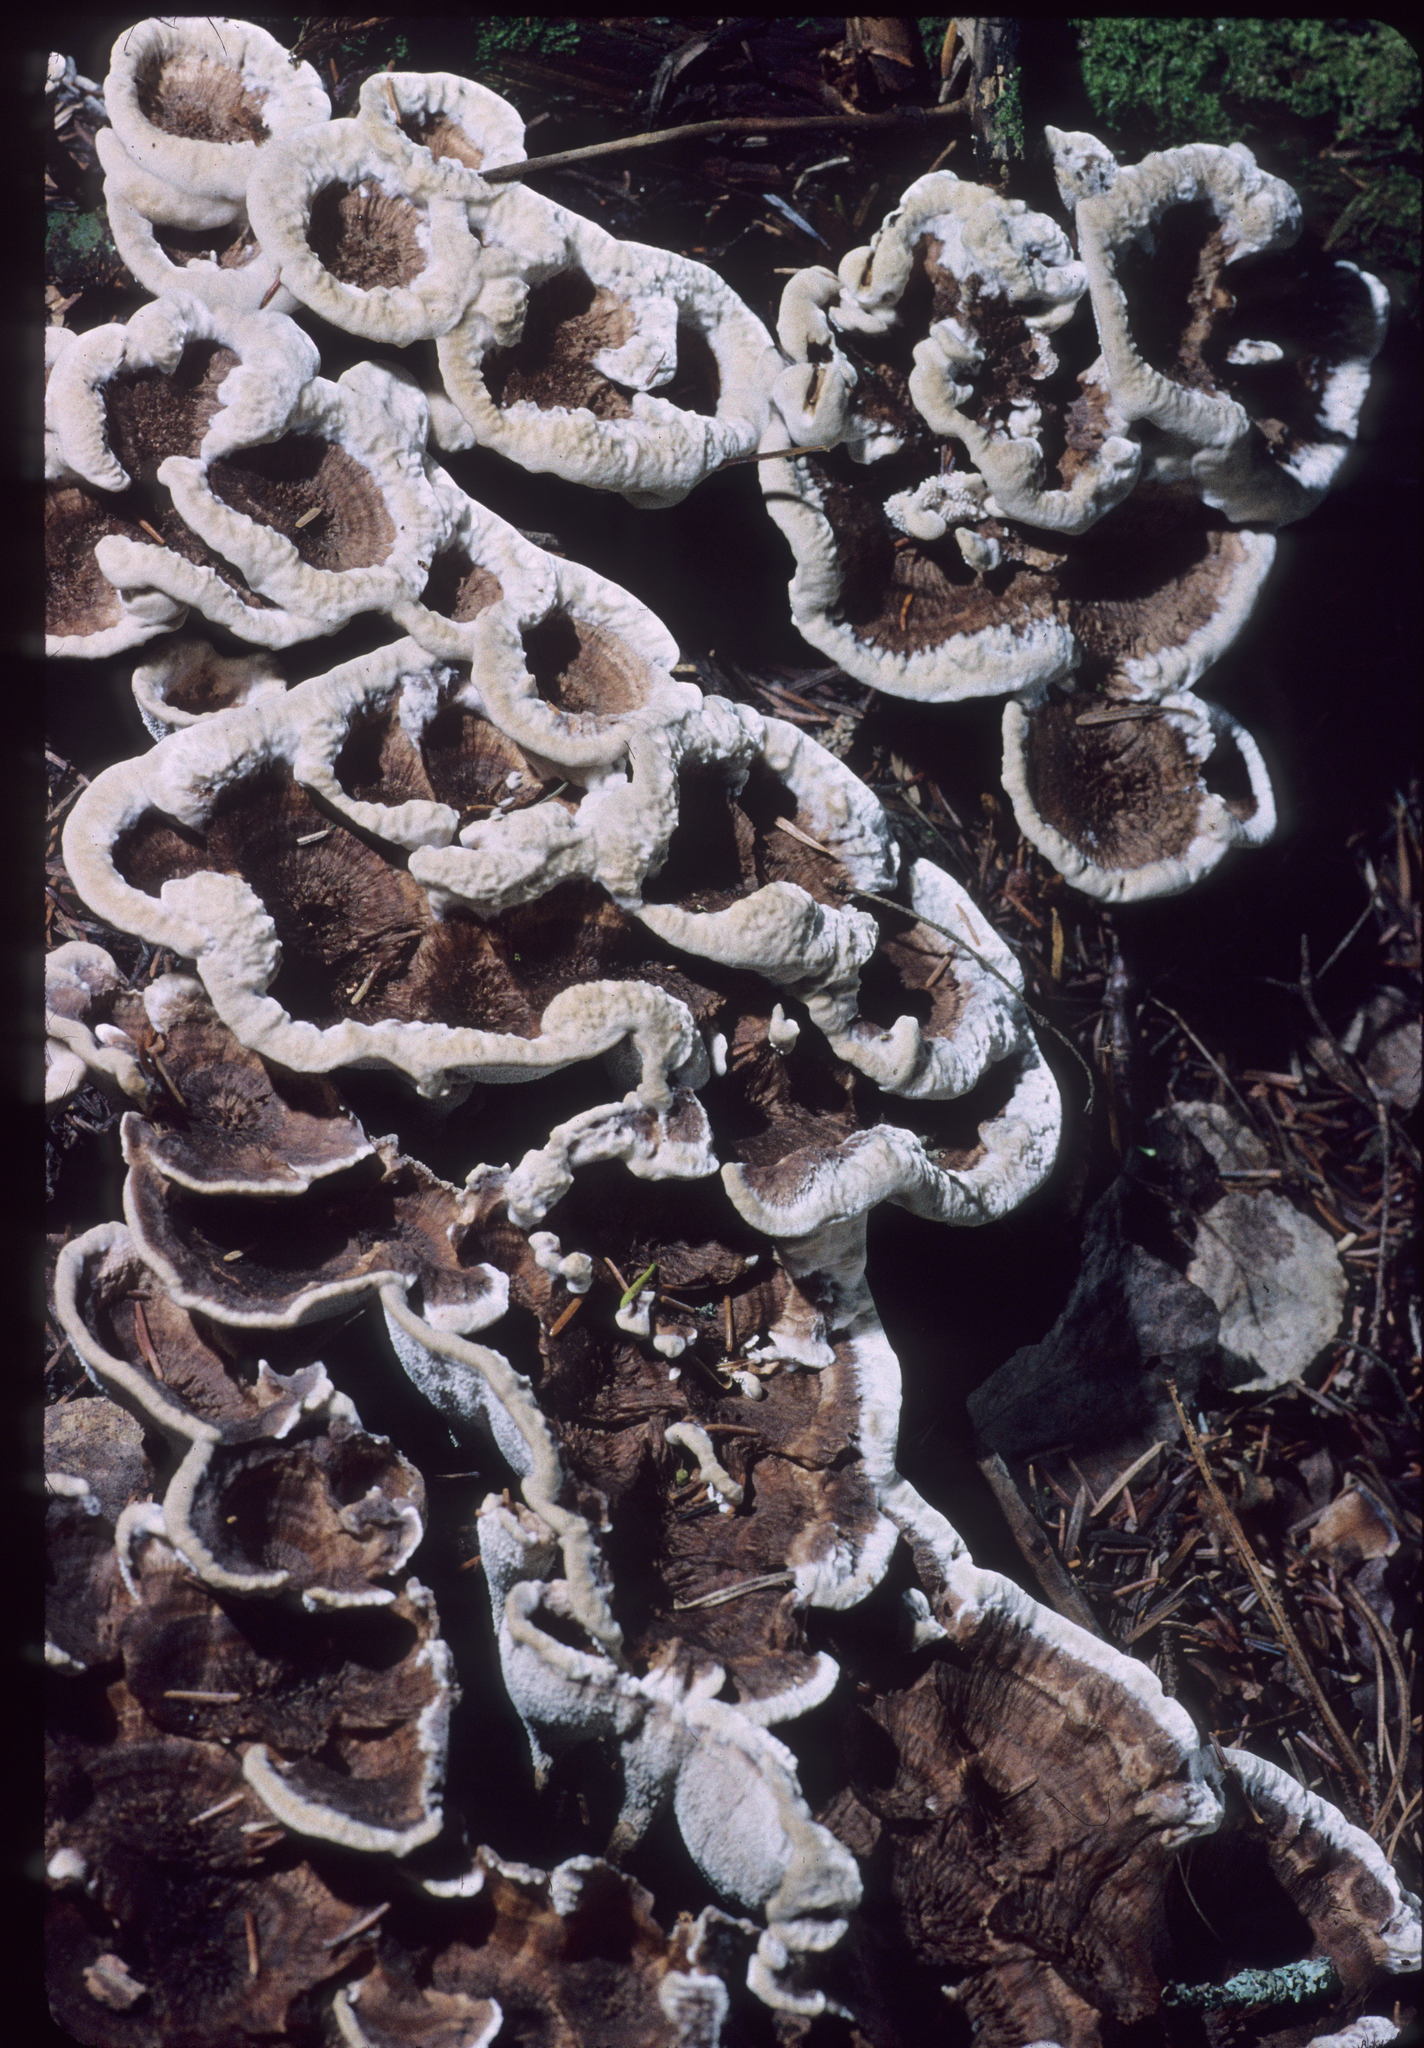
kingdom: Fungi
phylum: Basidiomycota
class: Agaricomycetes
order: Thelephorales
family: Thelephoraceae
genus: Phellodon
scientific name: Phellodon confluens
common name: Fused tooth
